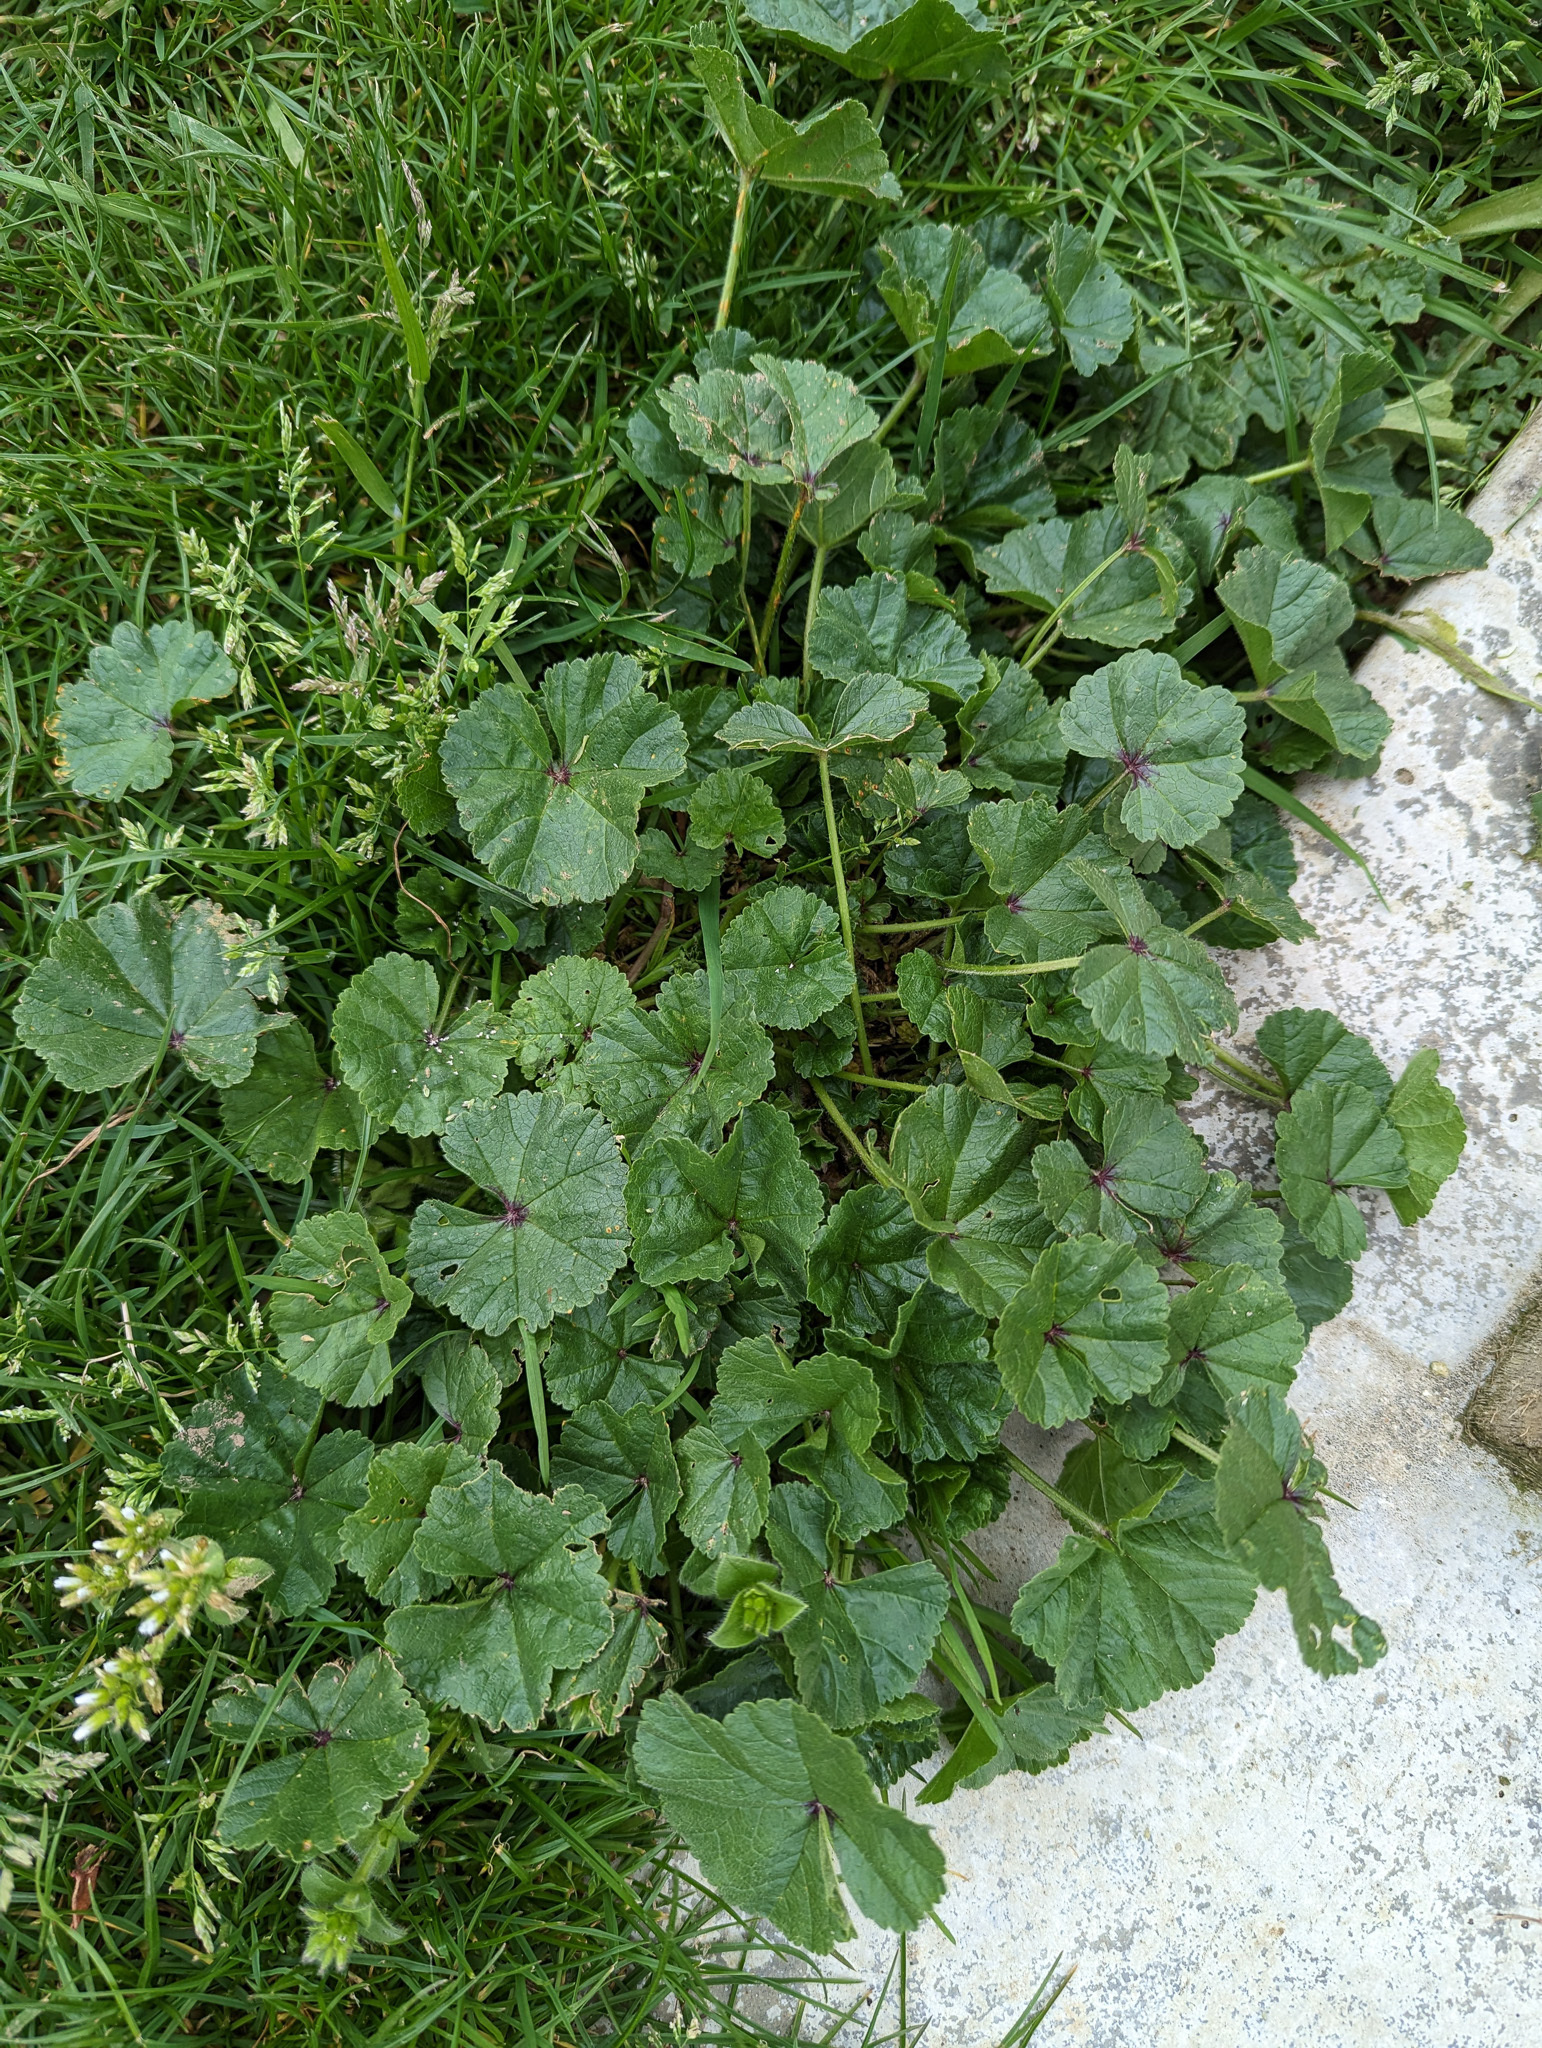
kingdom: Plantae
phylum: Tracheophyta
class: Magnoliopsida
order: Malvales
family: Malvaceae
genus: Malva
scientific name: Malva sylvestris
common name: Common mallow
